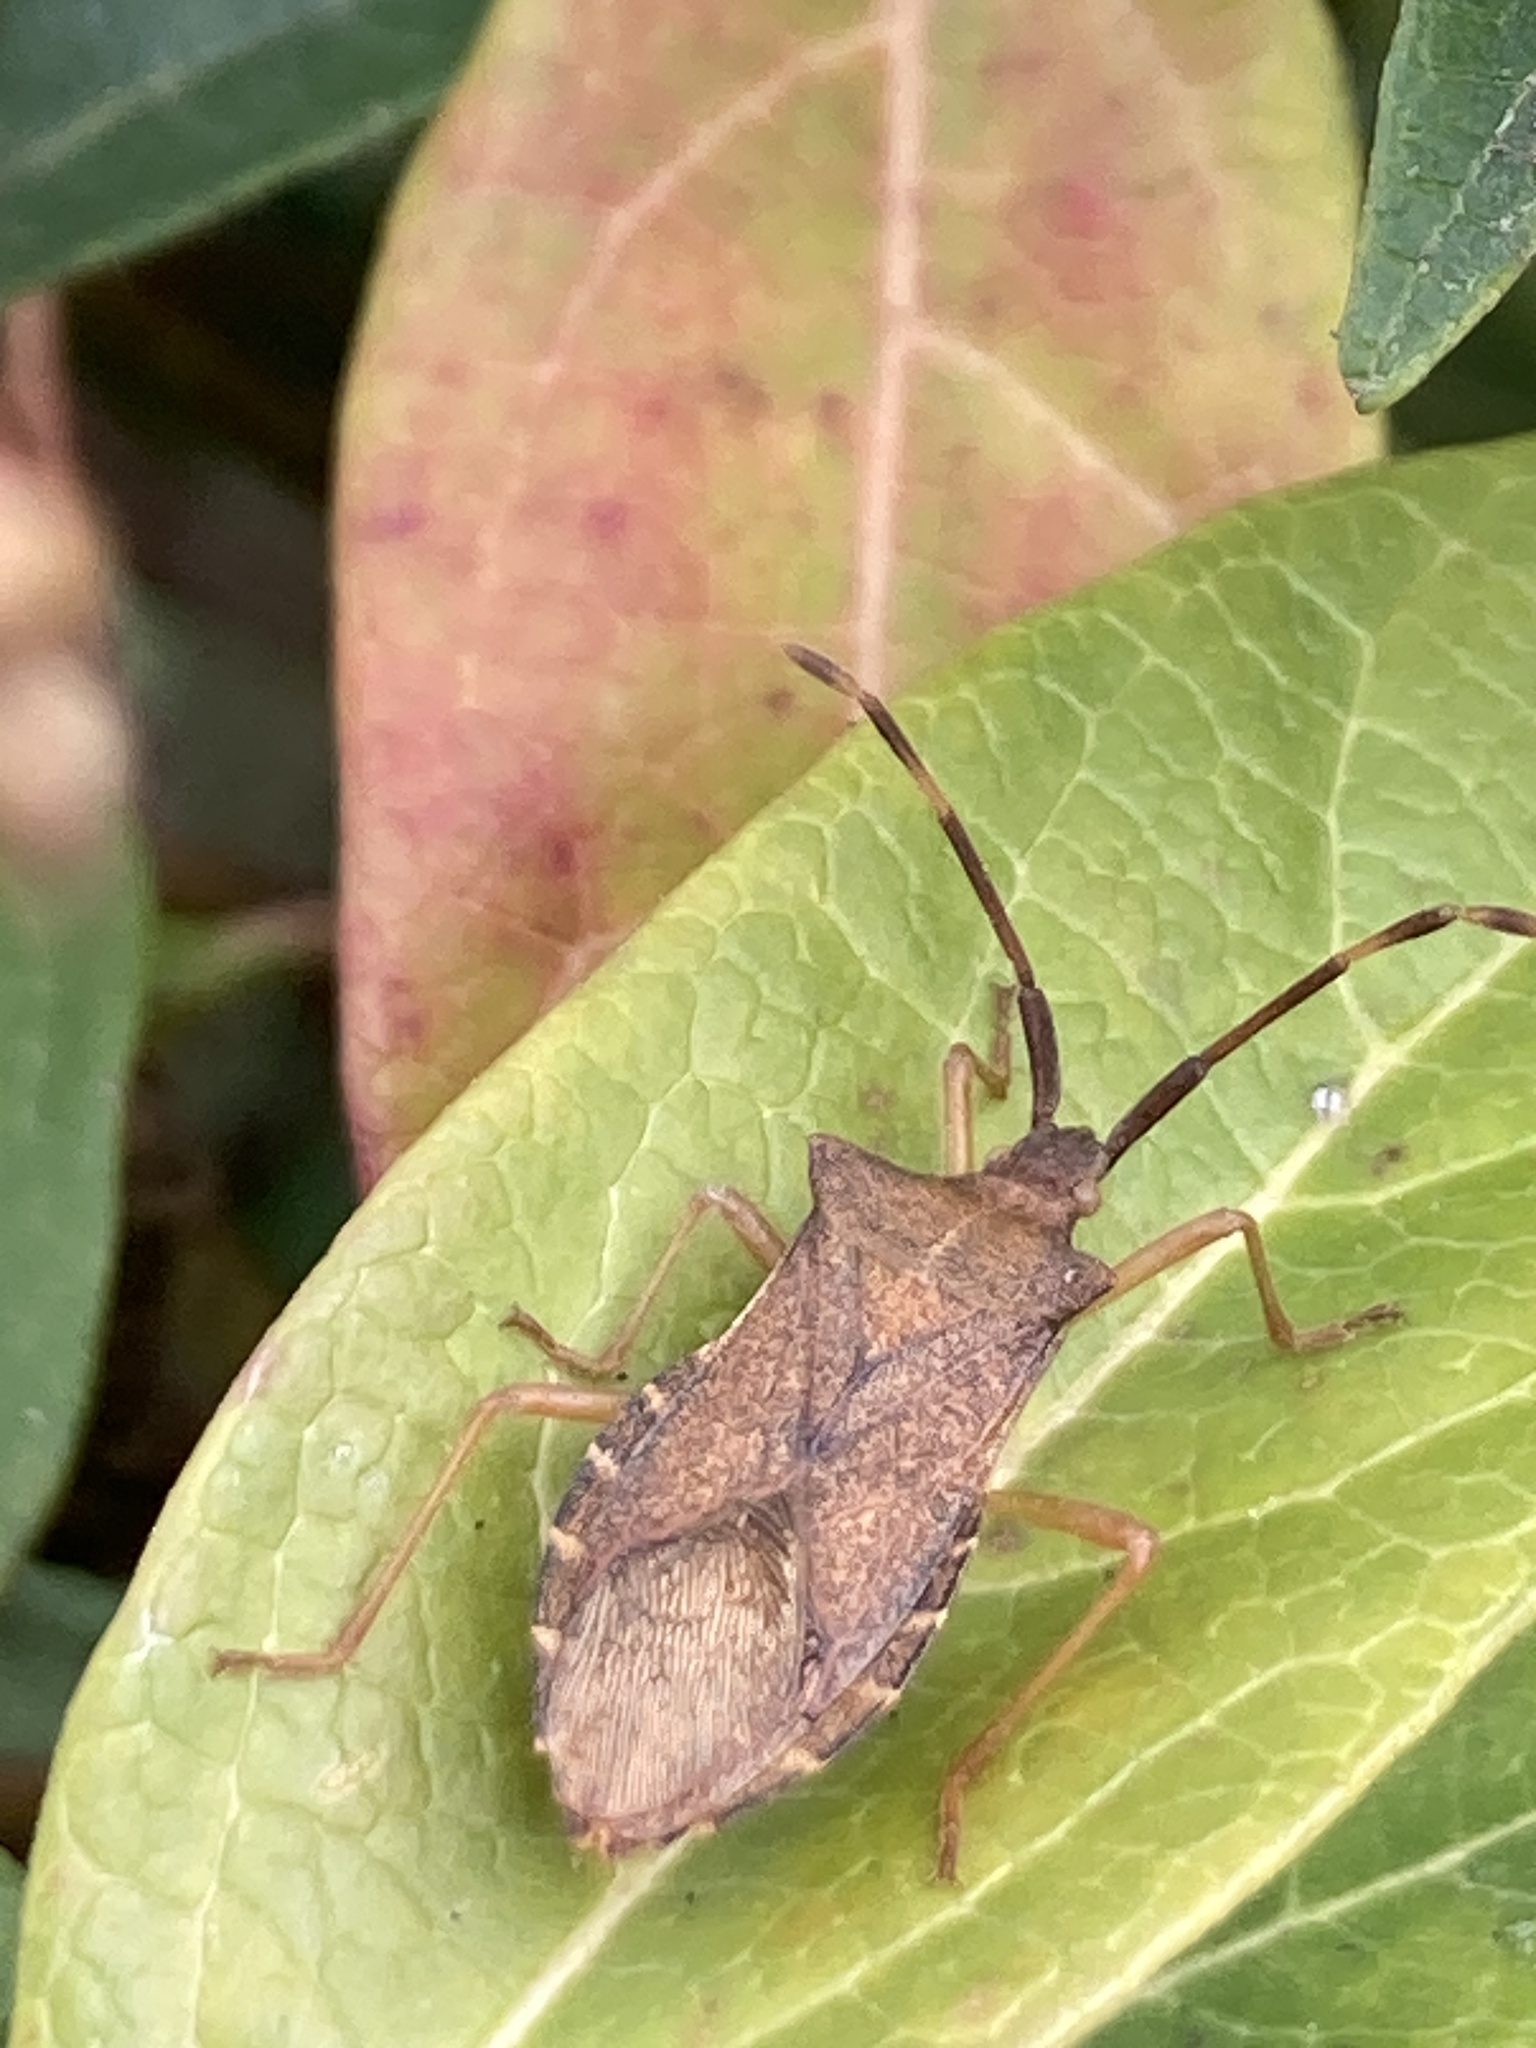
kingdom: Animalia
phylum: Arthropoda
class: Insecta
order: Hemiptera
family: Coreidae
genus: Gonocerus
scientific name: Gonocerus acuteangulatus
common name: Box bug
